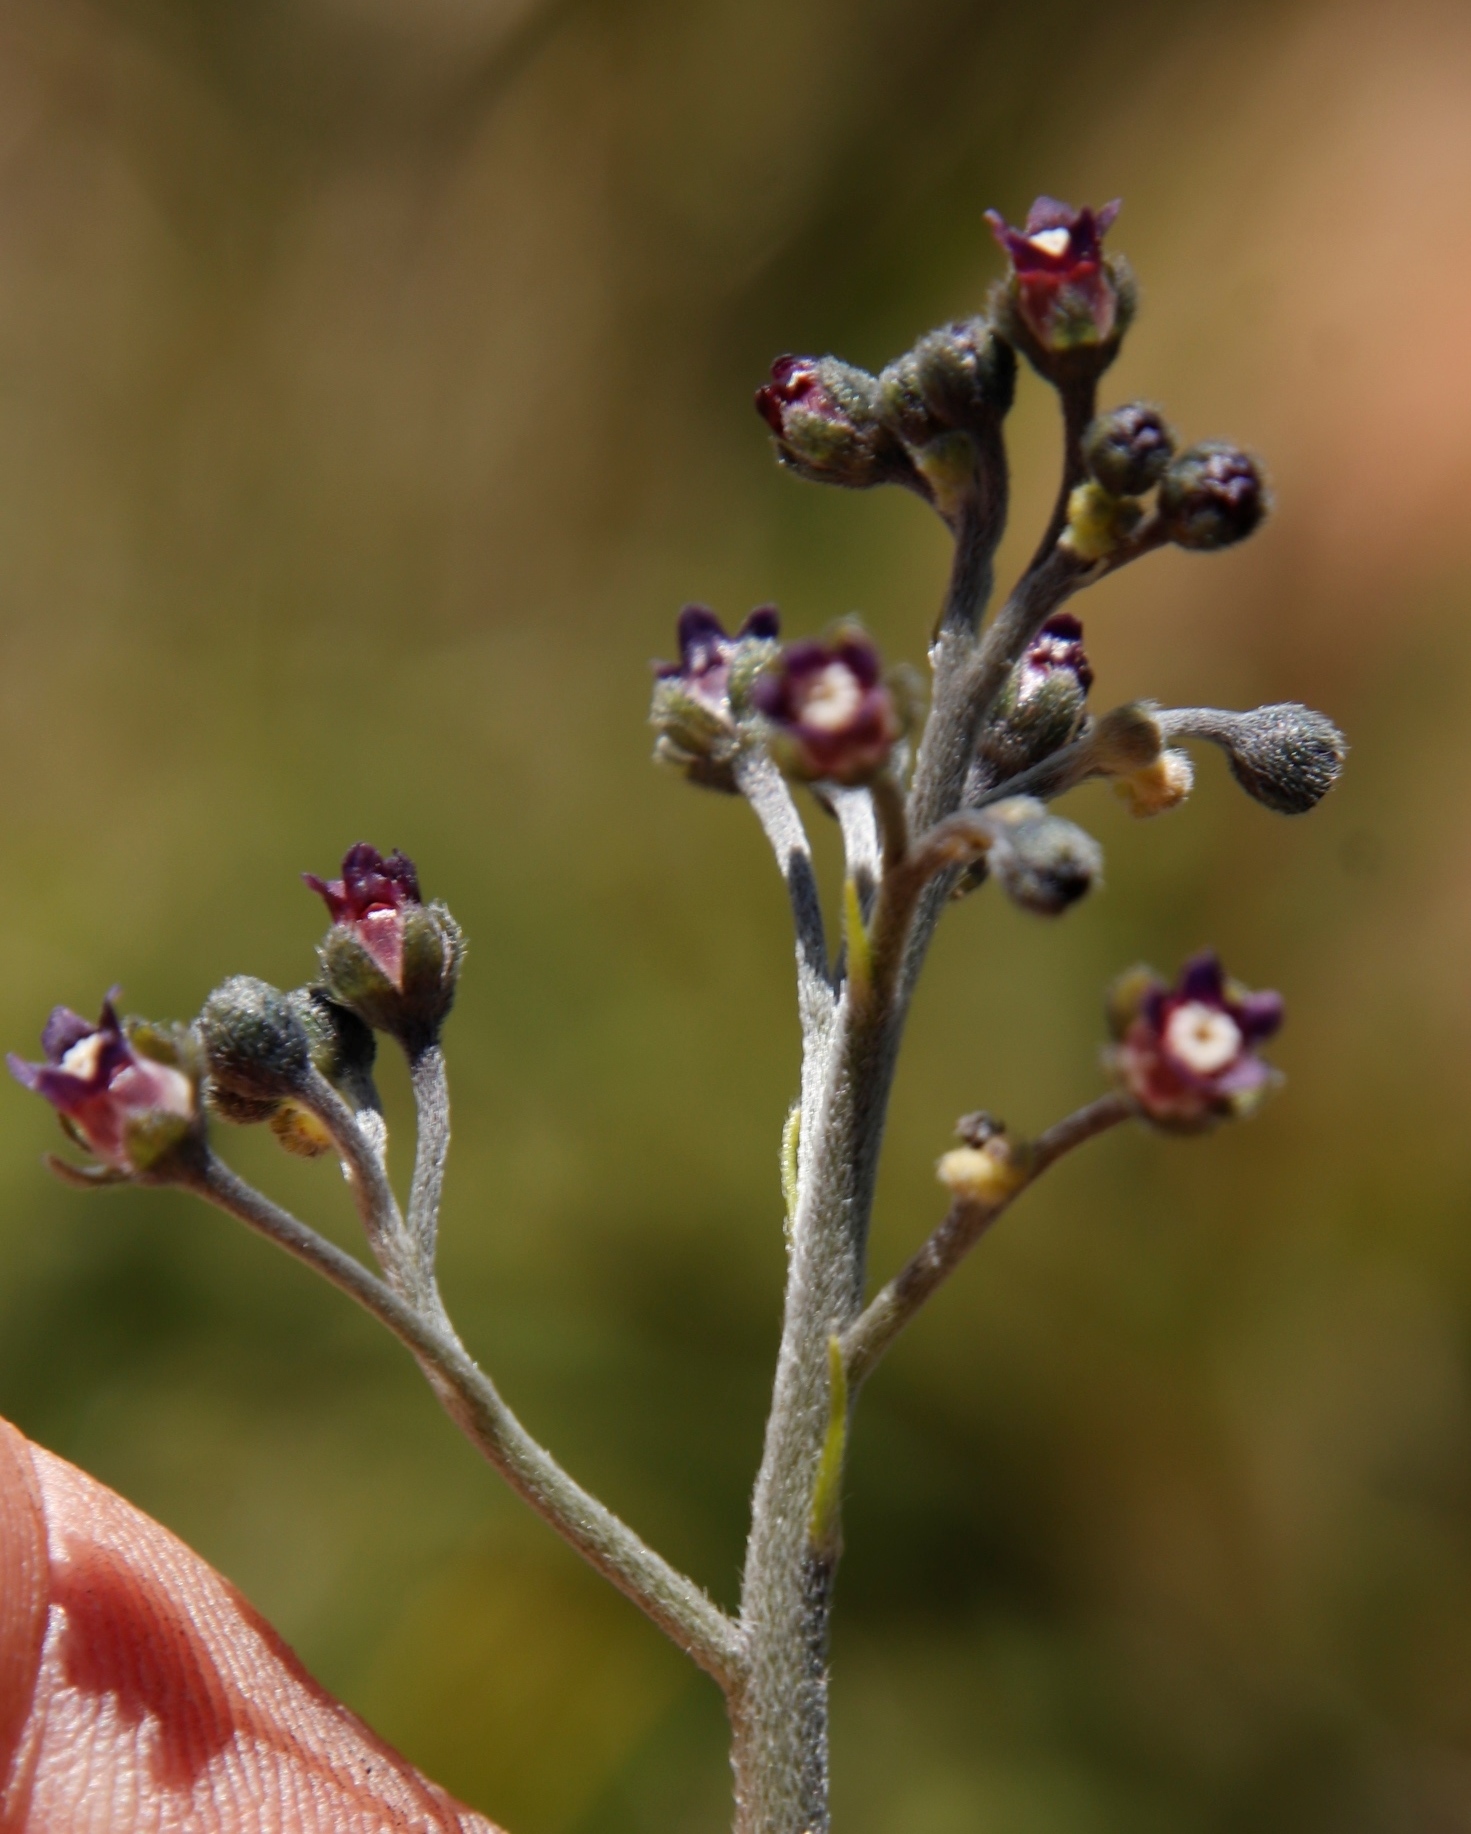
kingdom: Plantae
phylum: Tracheophyta
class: Magnoliopsida
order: Boraginales
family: Boraginaceae
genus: Cynoglossum
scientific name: Cynoglossum hispidum
